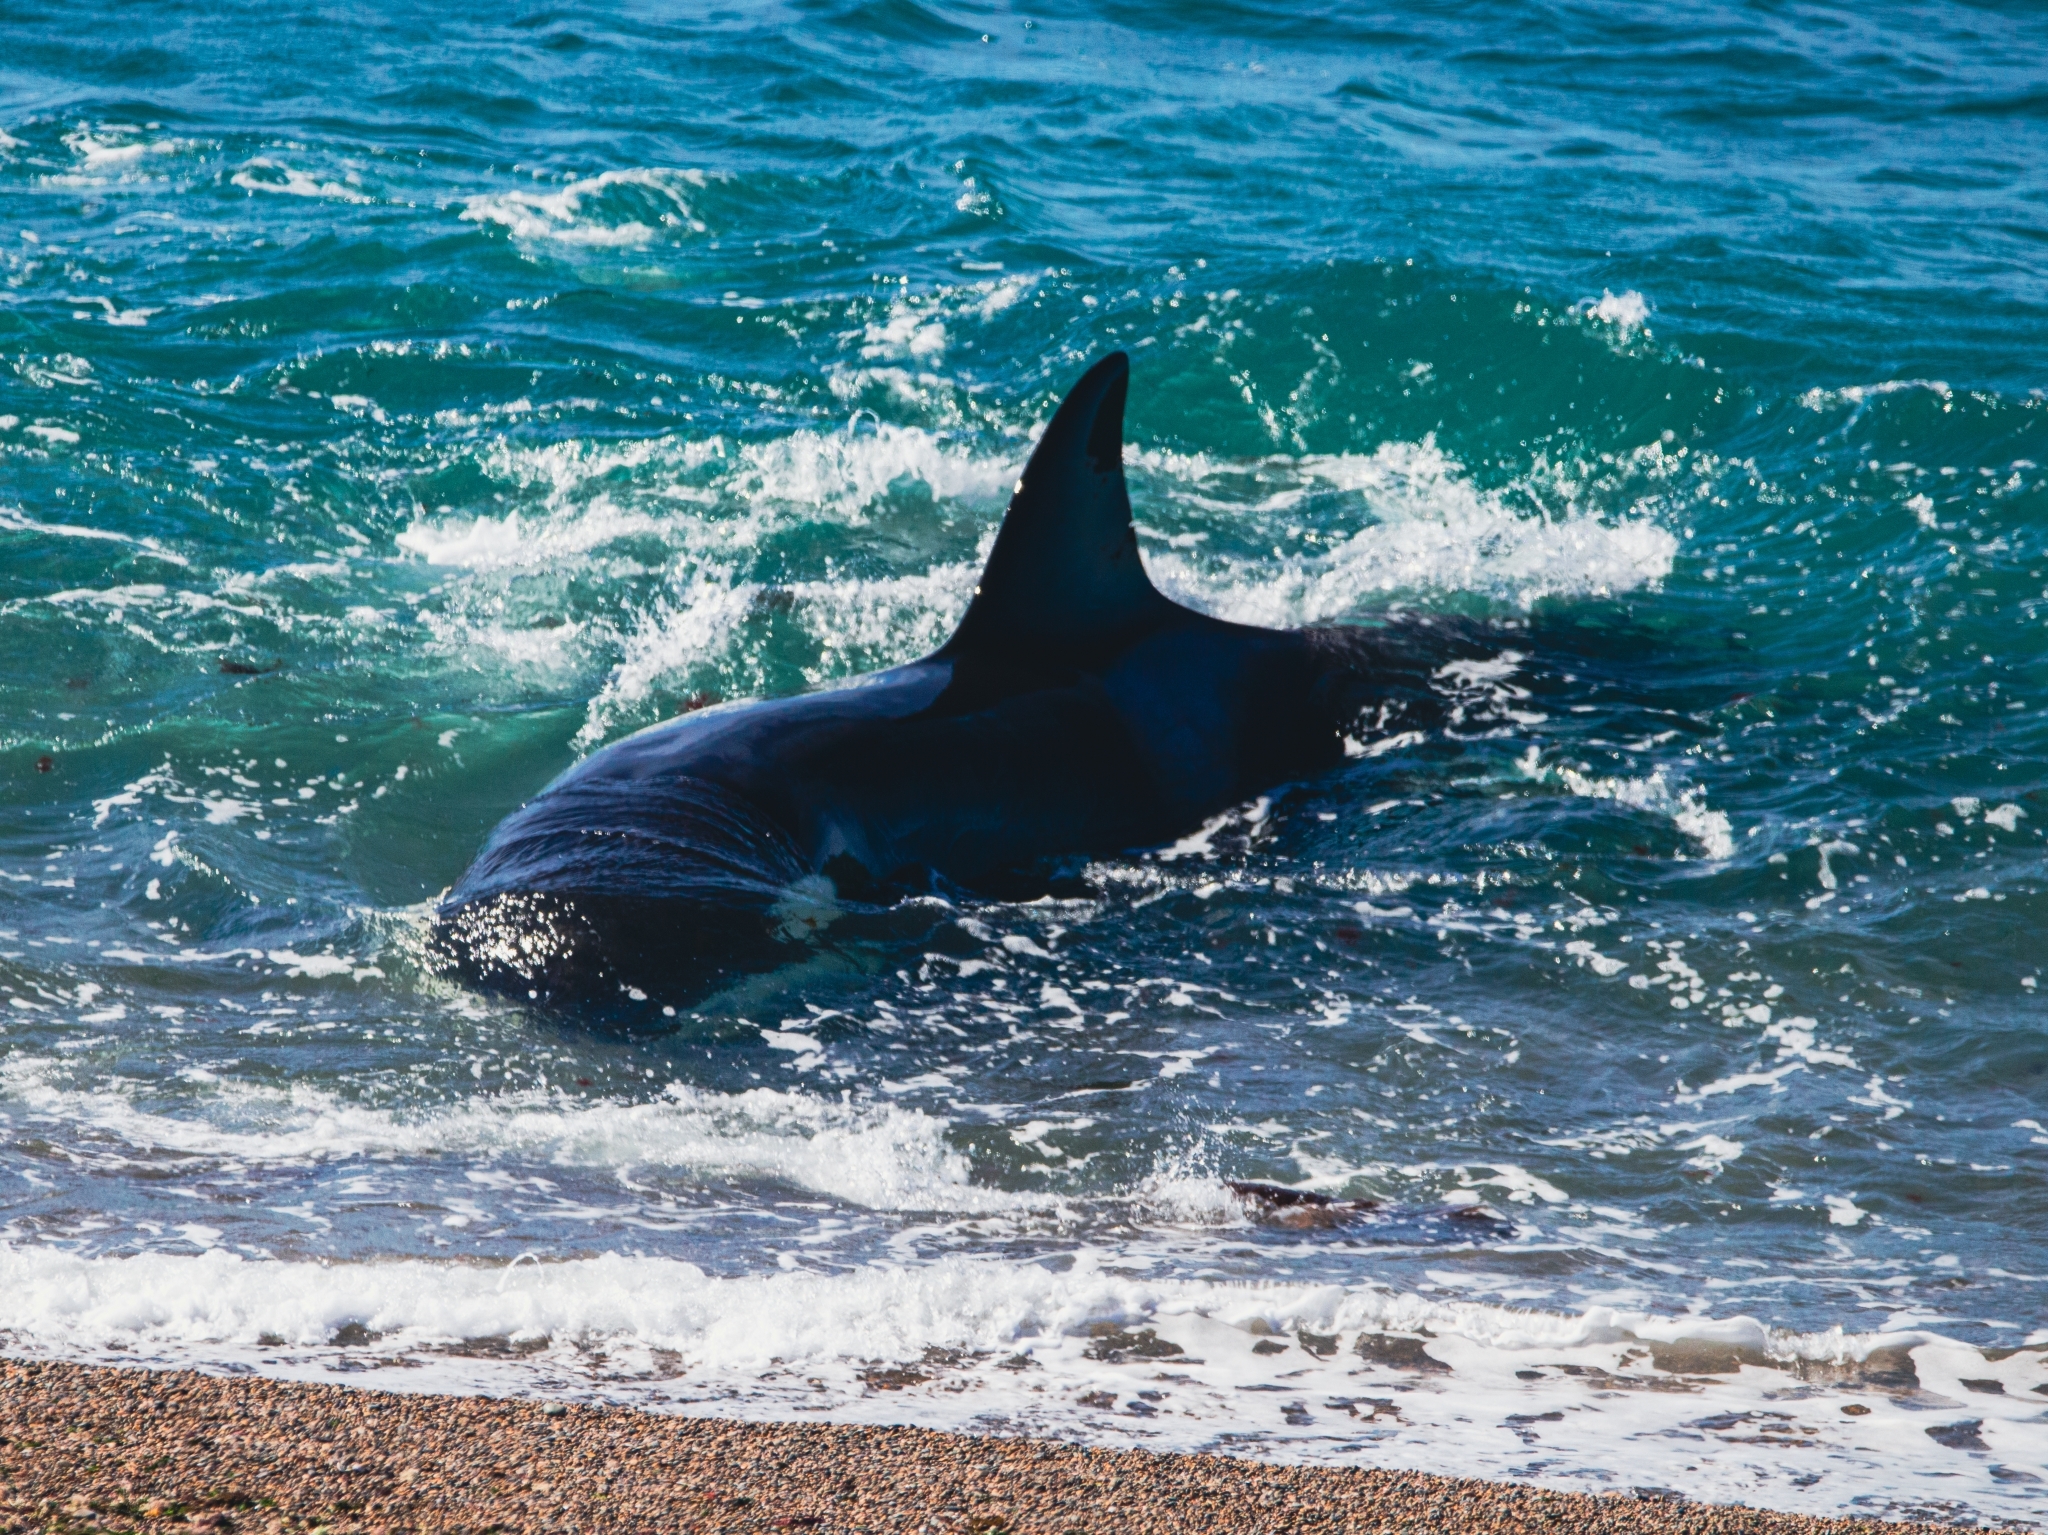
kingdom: Animalia
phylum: Chordata
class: Mammalia
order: Cetacea
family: Delphinidae
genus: Orcinus
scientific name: Orcinus orca
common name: Killer whale
